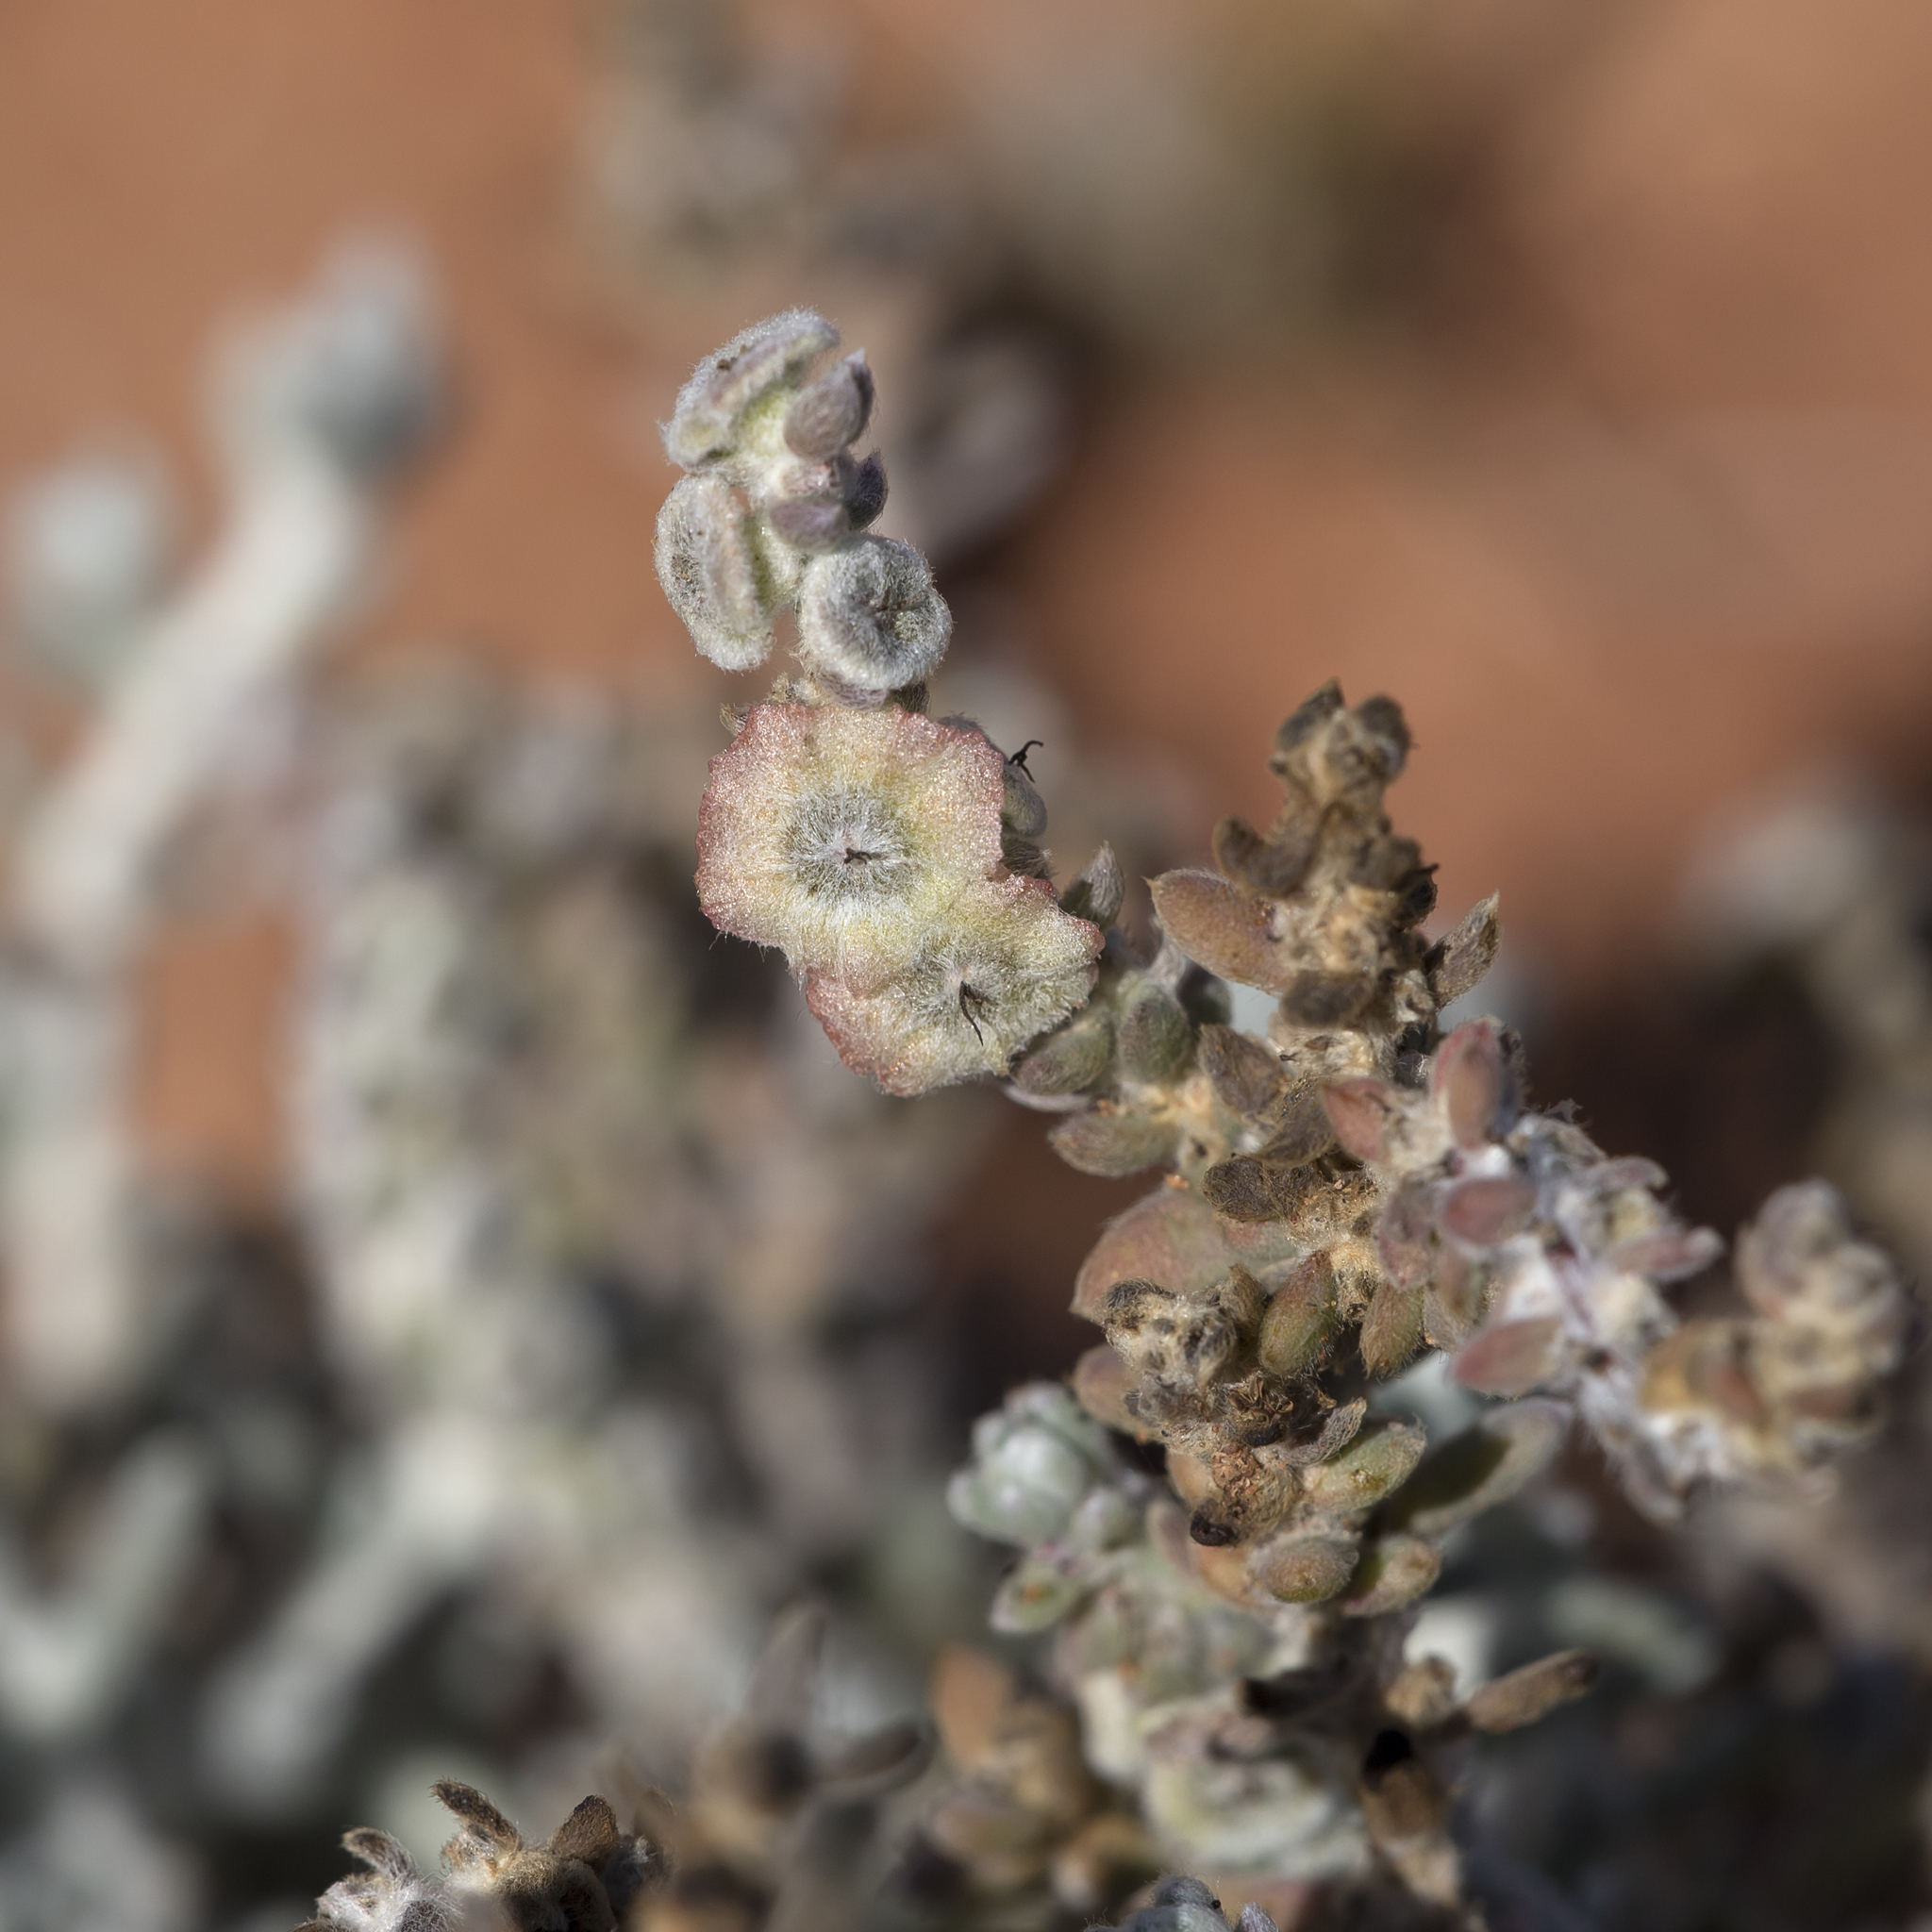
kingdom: Plantae
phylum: Tracheophyta
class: Magnoliopsida
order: Caryophyllales
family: Amaranthaceae
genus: Maireana
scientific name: Maireana trichoptera
